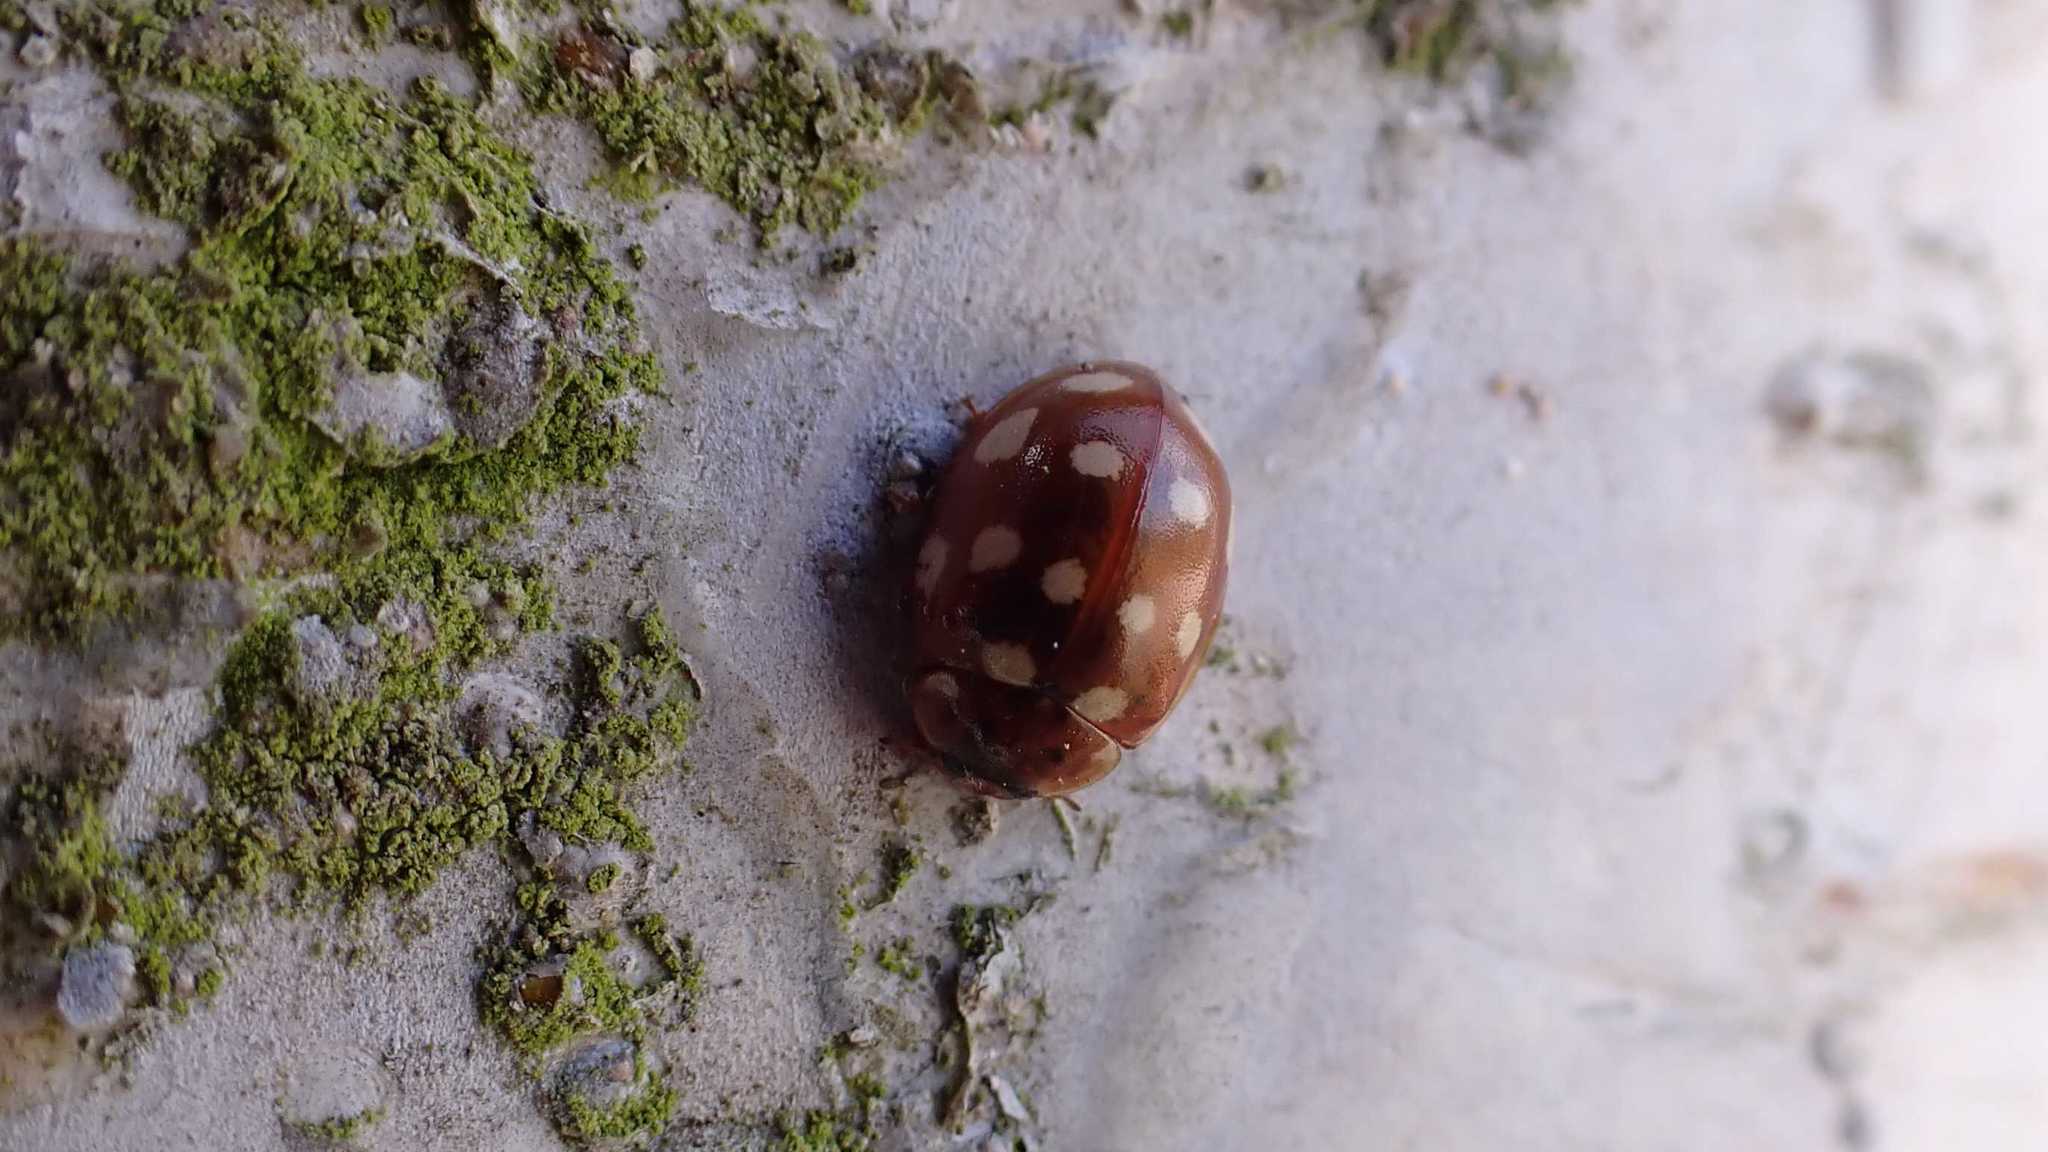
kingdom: Animalia
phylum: Arthropoda
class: Insecta
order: Coleoptera
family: Coccinellidae
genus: Calvia
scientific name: Calvia quatuordecimguttata
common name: Cream-spot ladybird
